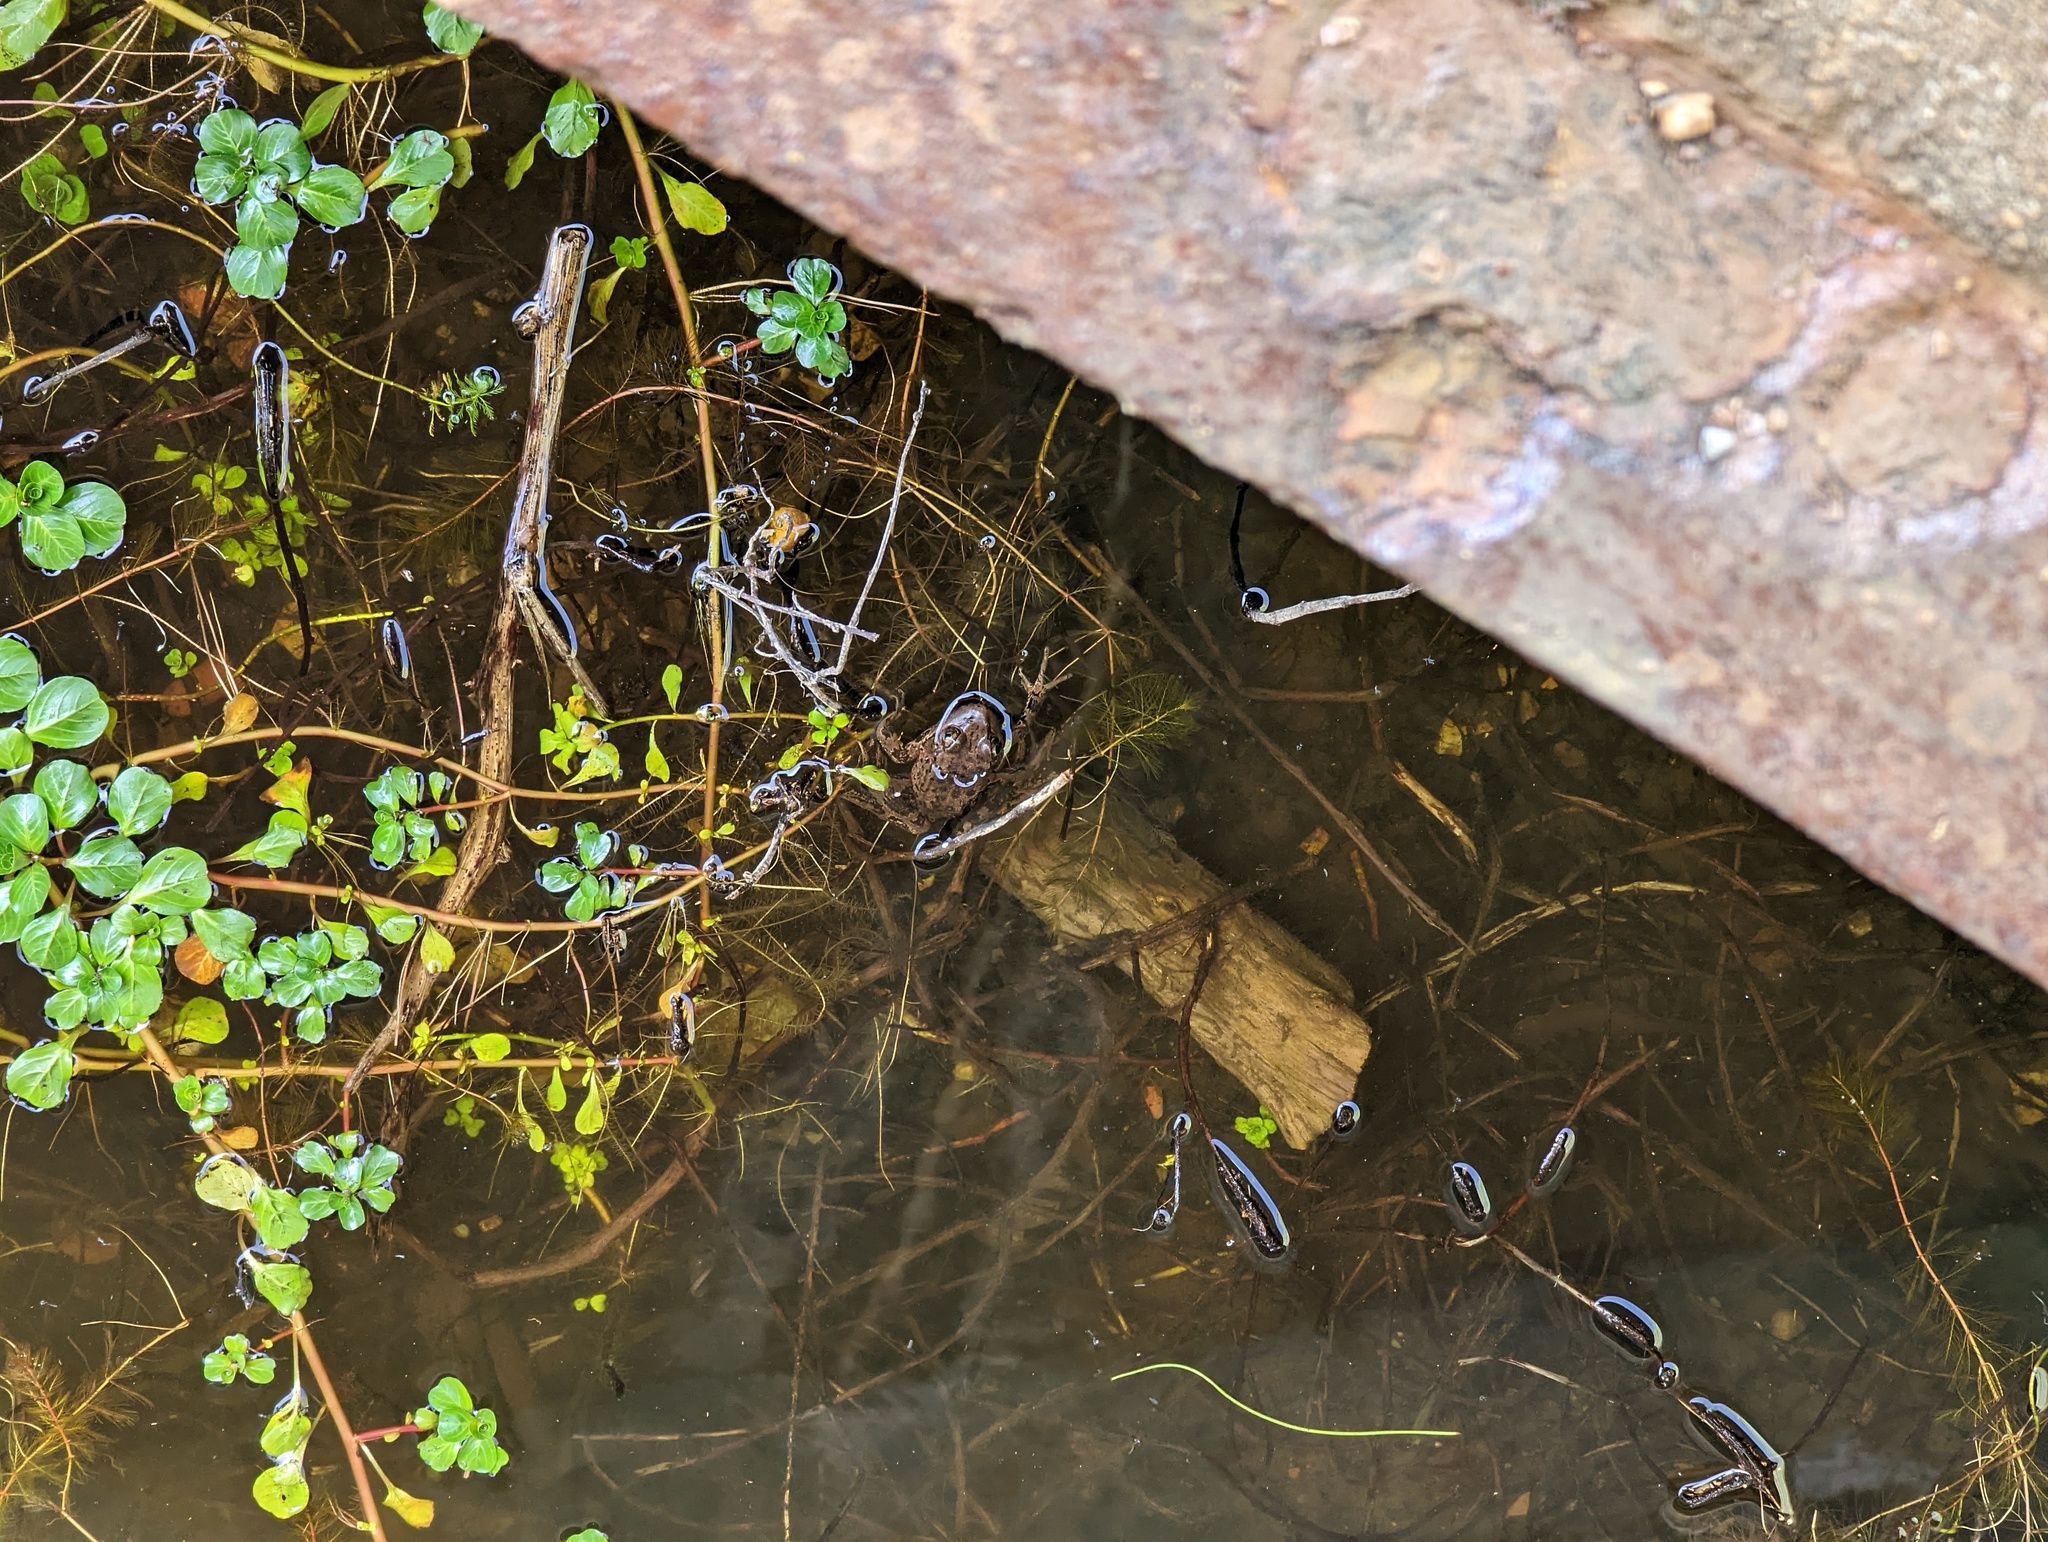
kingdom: Animalia
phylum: Chordata
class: Amphibia
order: Anura
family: Ranidae
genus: Rana
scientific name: Rana draytonii
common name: California red-legged frog
